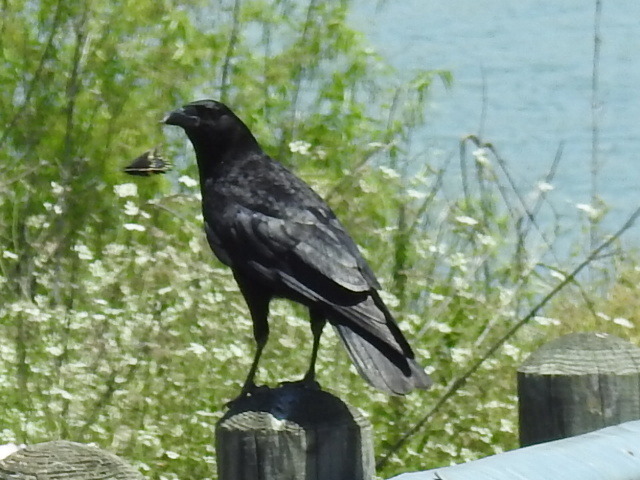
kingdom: Animalia
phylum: Chordata
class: Aves
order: Passeriformes
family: Corvidae
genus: Corvus
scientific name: Corvus brachyrhynchos
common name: American crow
